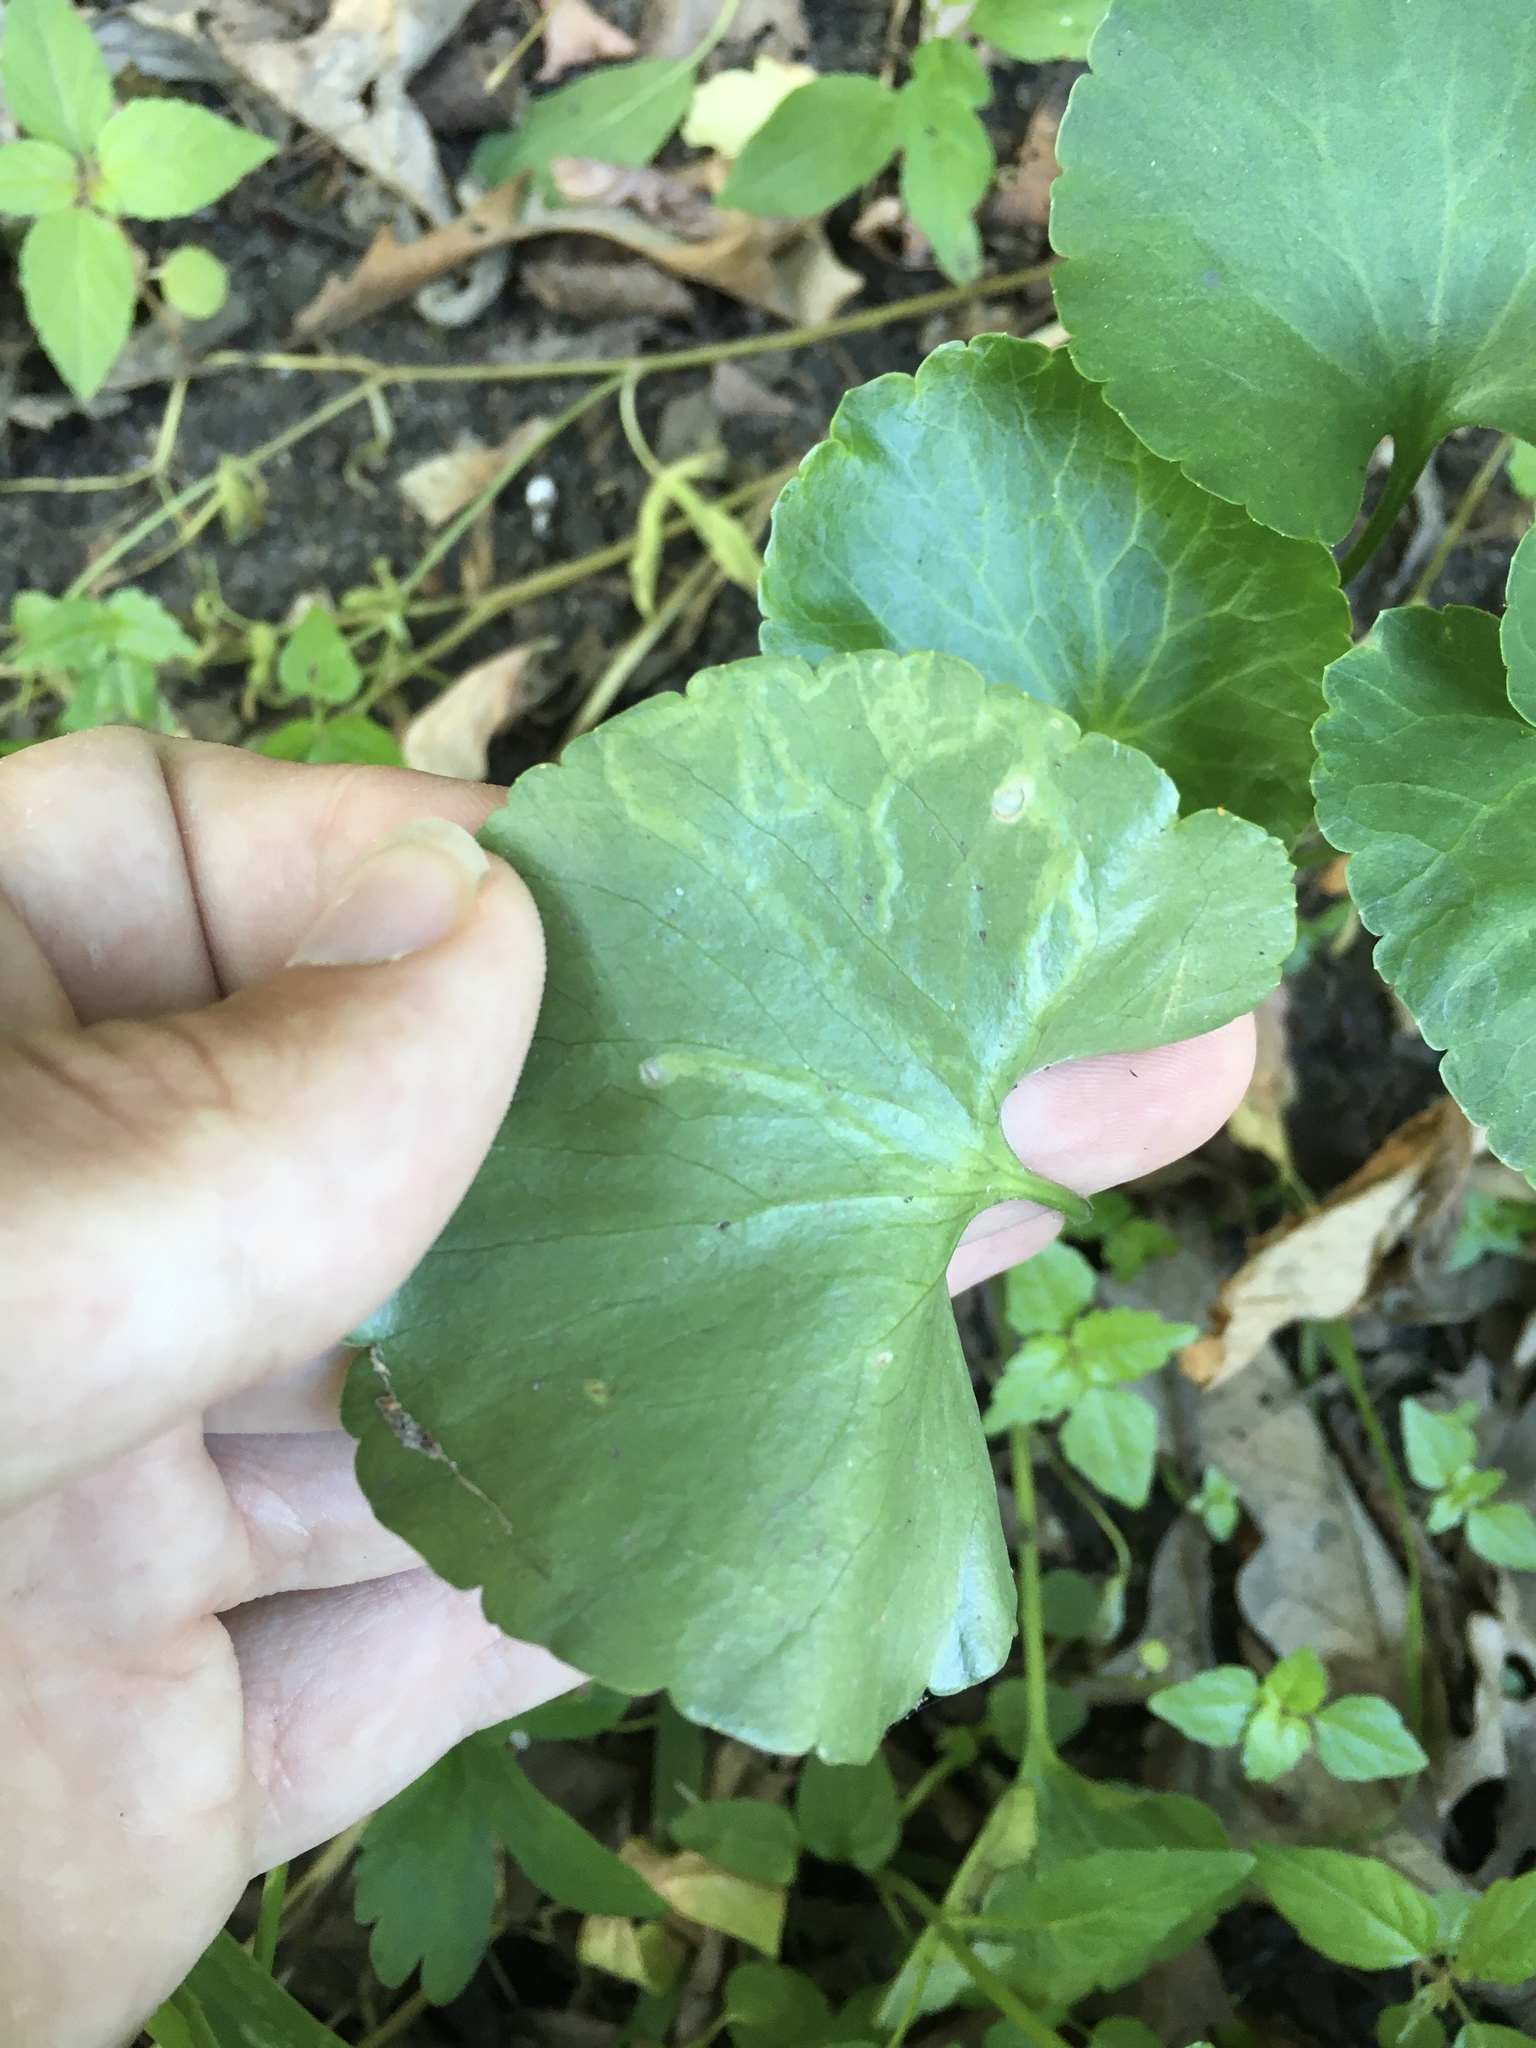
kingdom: Animalia
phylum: Arthropoda
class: Insecta
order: Diptera
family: Agromyzidae
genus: Phytomyza
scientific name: Phytomyza ranunculi
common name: Leaf-miner fly
